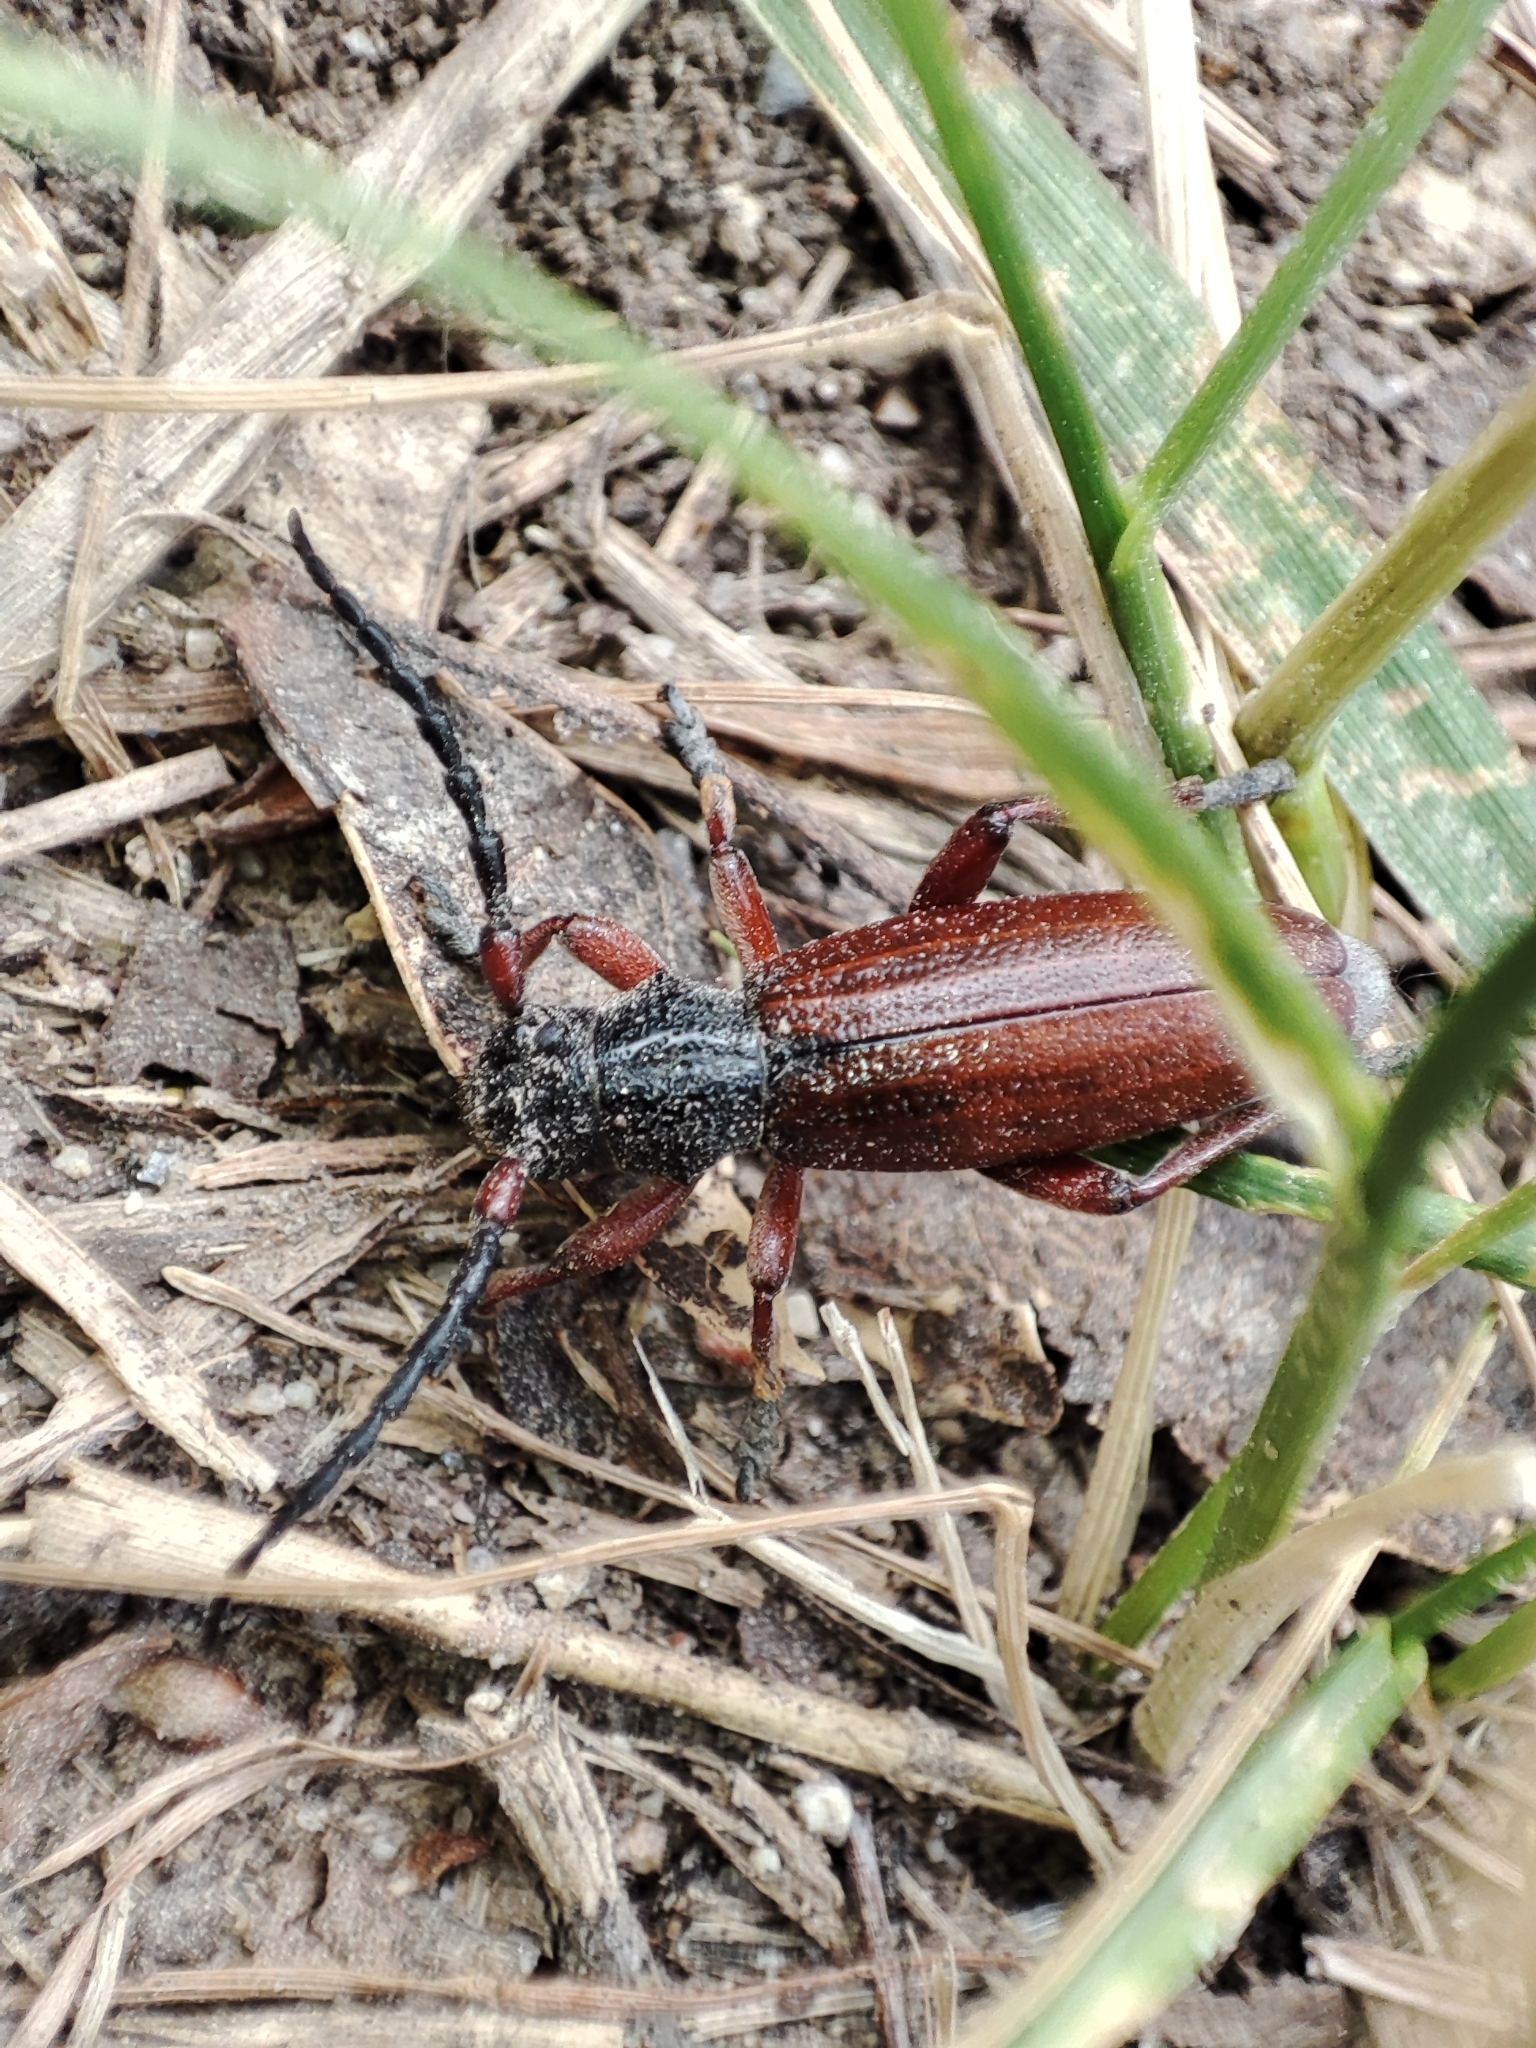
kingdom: Animalia
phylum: Arthropoda
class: Insecta
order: Coleoptera
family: Cerambycidae
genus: Dorcadion
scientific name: Dorcadion fulvum
